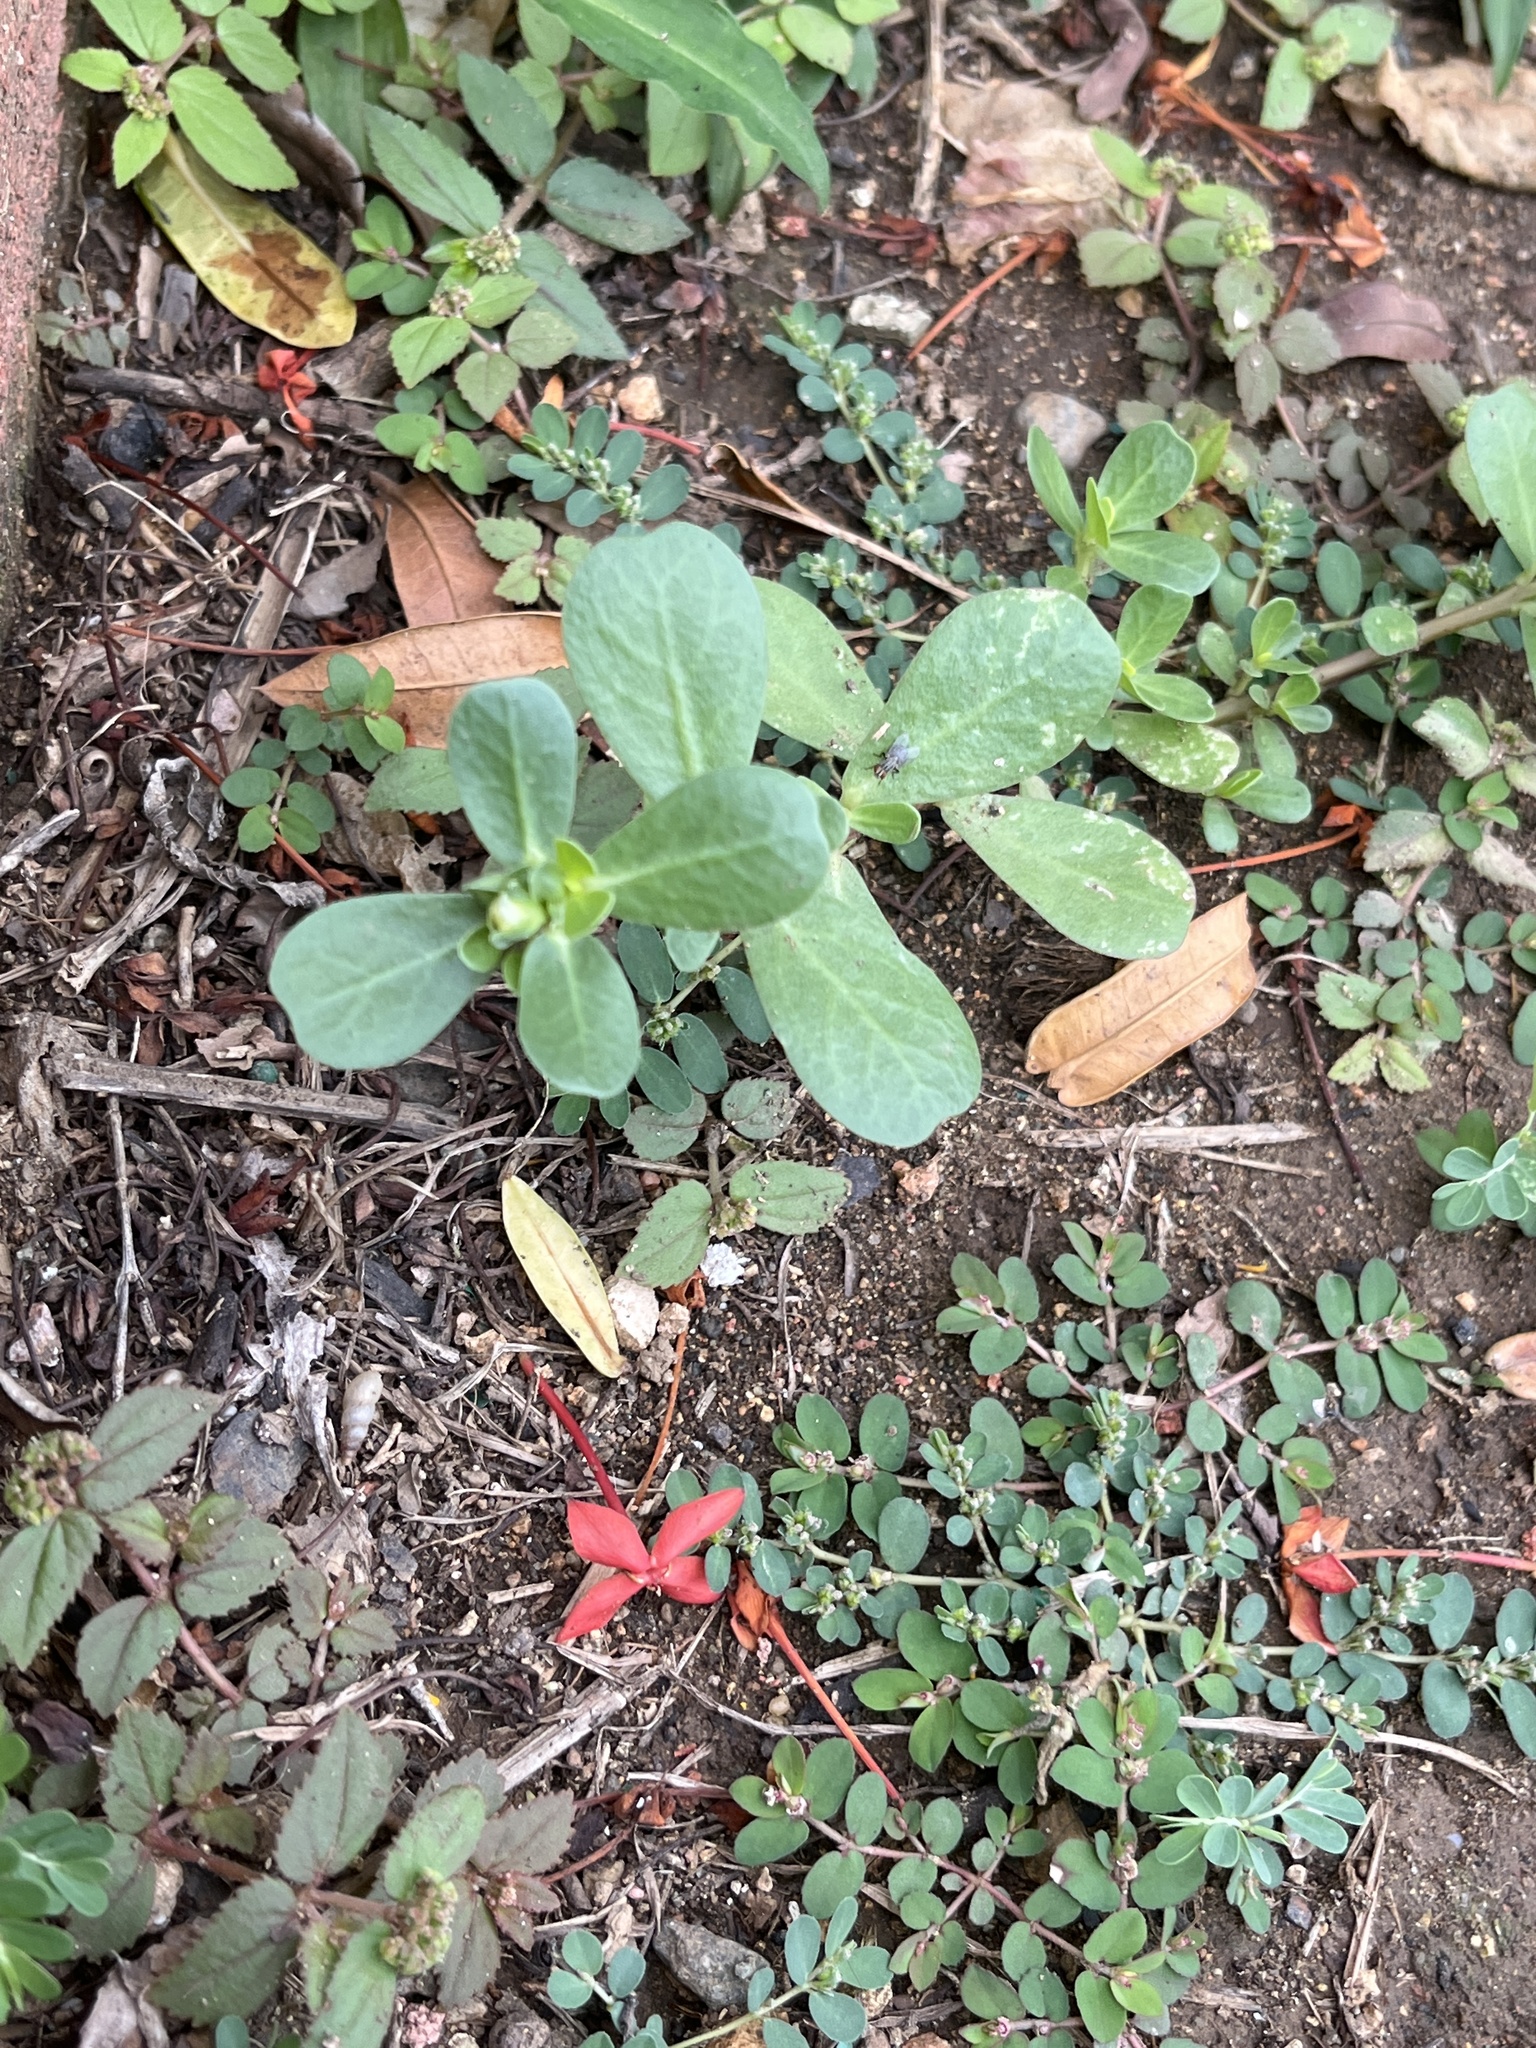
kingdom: Plantae
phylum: Tracheophyta
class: Magnoliopsida
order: Caryophyllales
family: Portulacaceae
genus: Portulaca
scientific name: Portulaca oleracea
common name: Common purslane
